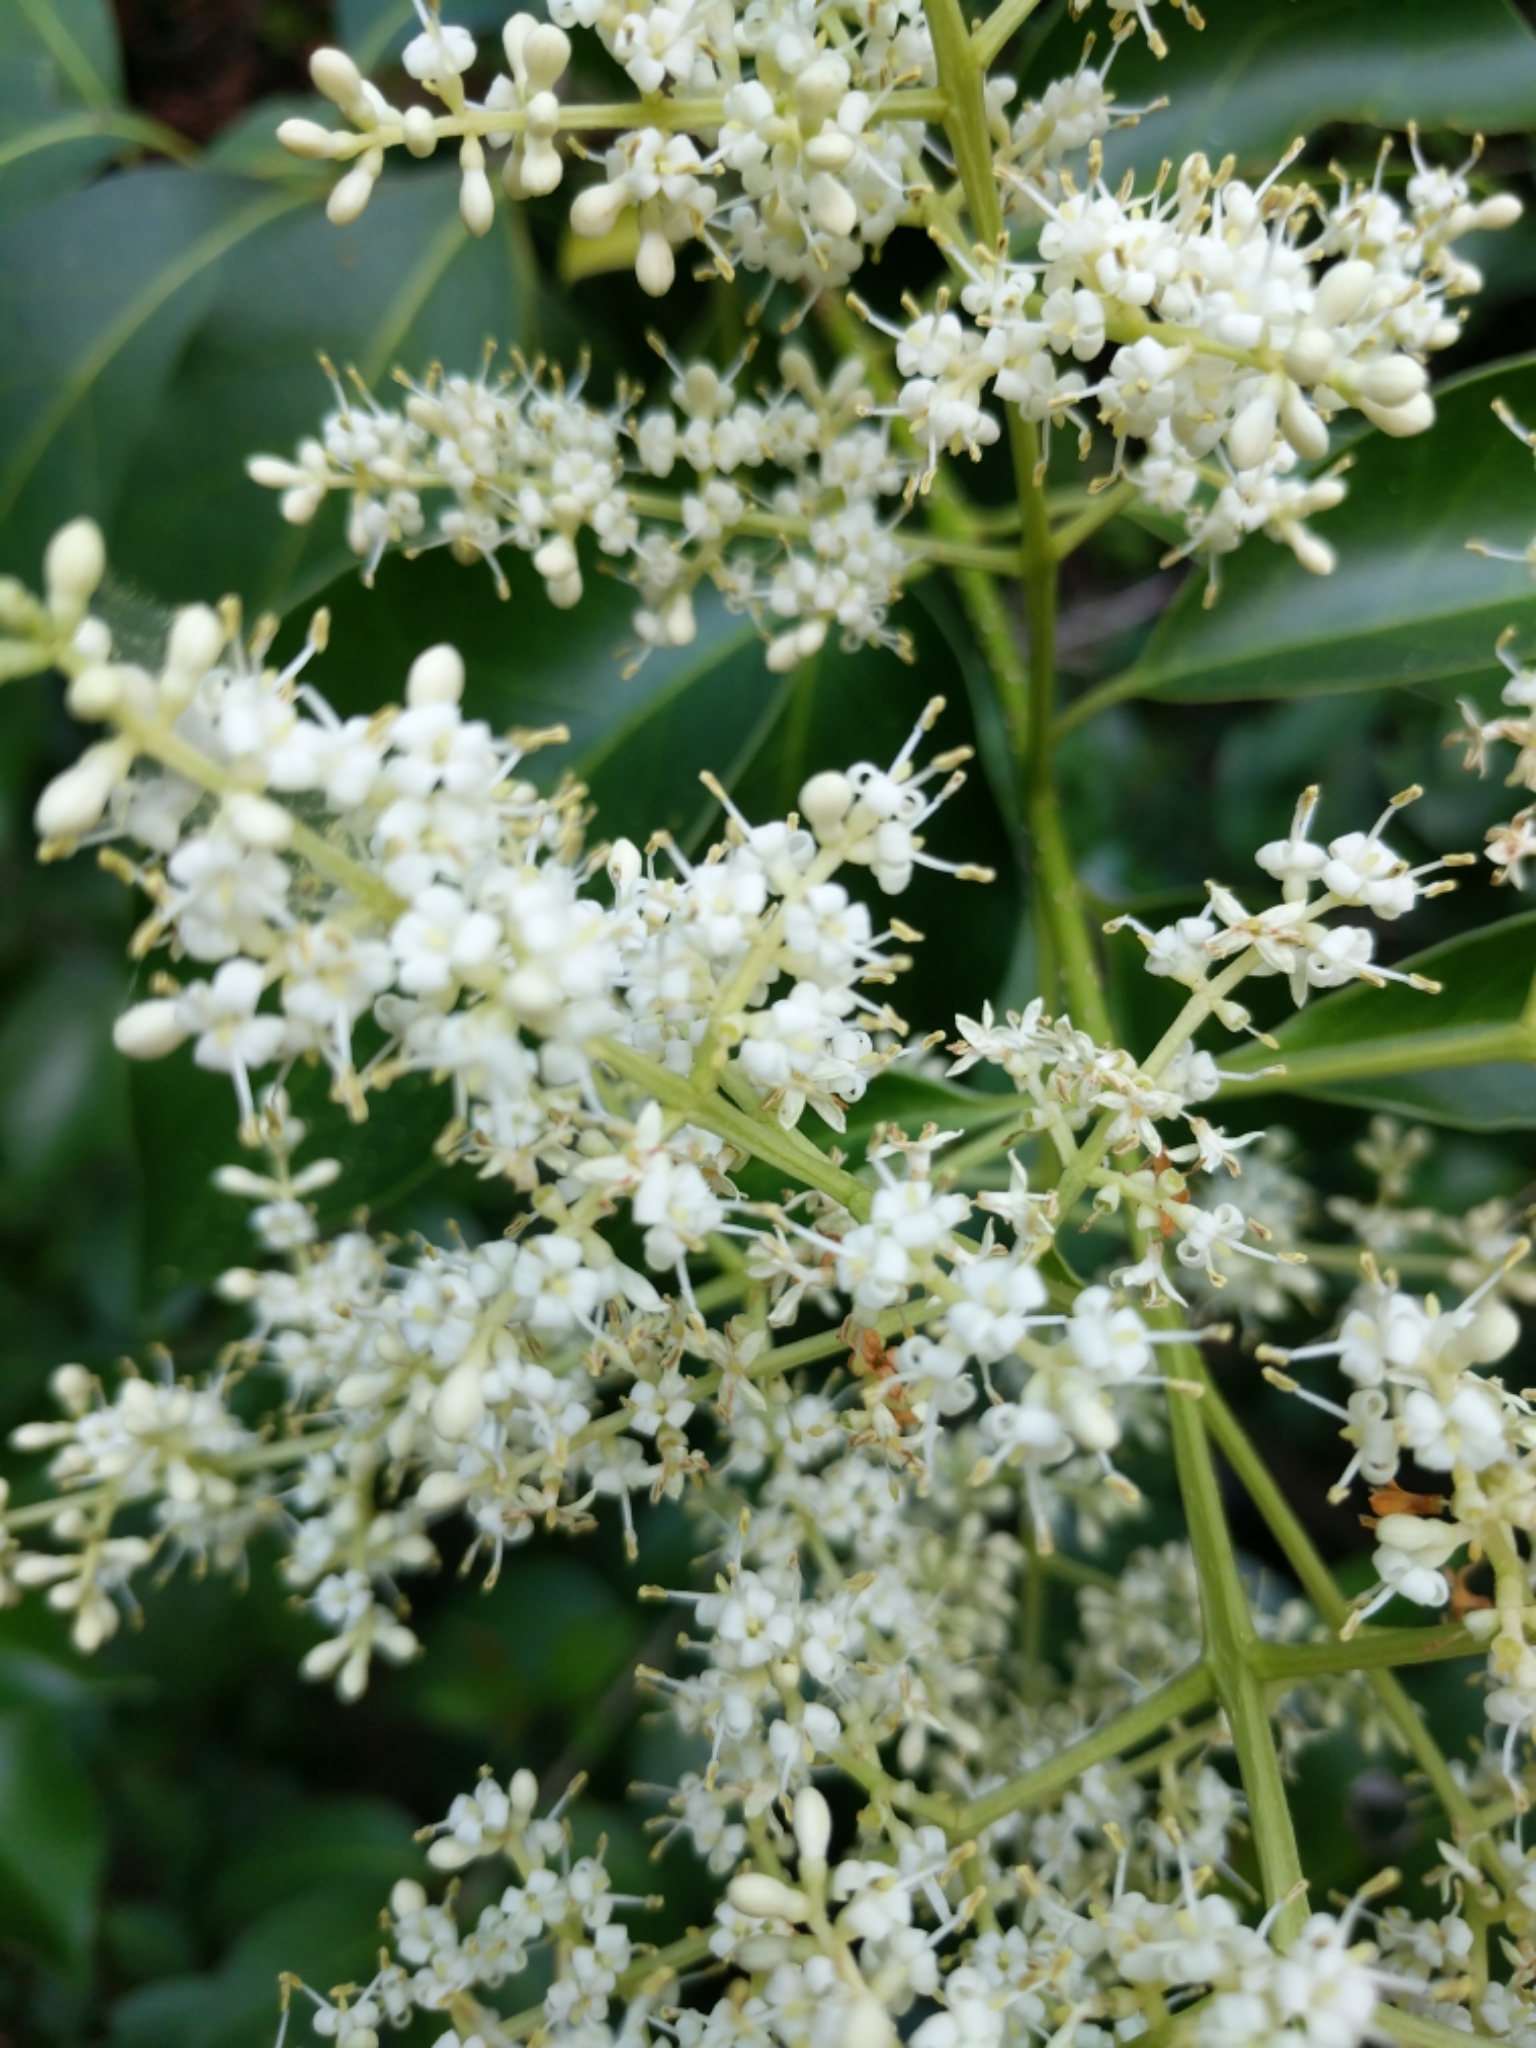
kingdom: Plantae
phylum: Tracheophyta
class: Magnoliopsida
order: Lamiales
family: Oleaceae
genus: Ligustrum
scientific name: Ligustrum lucidum
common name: Glossy privet
